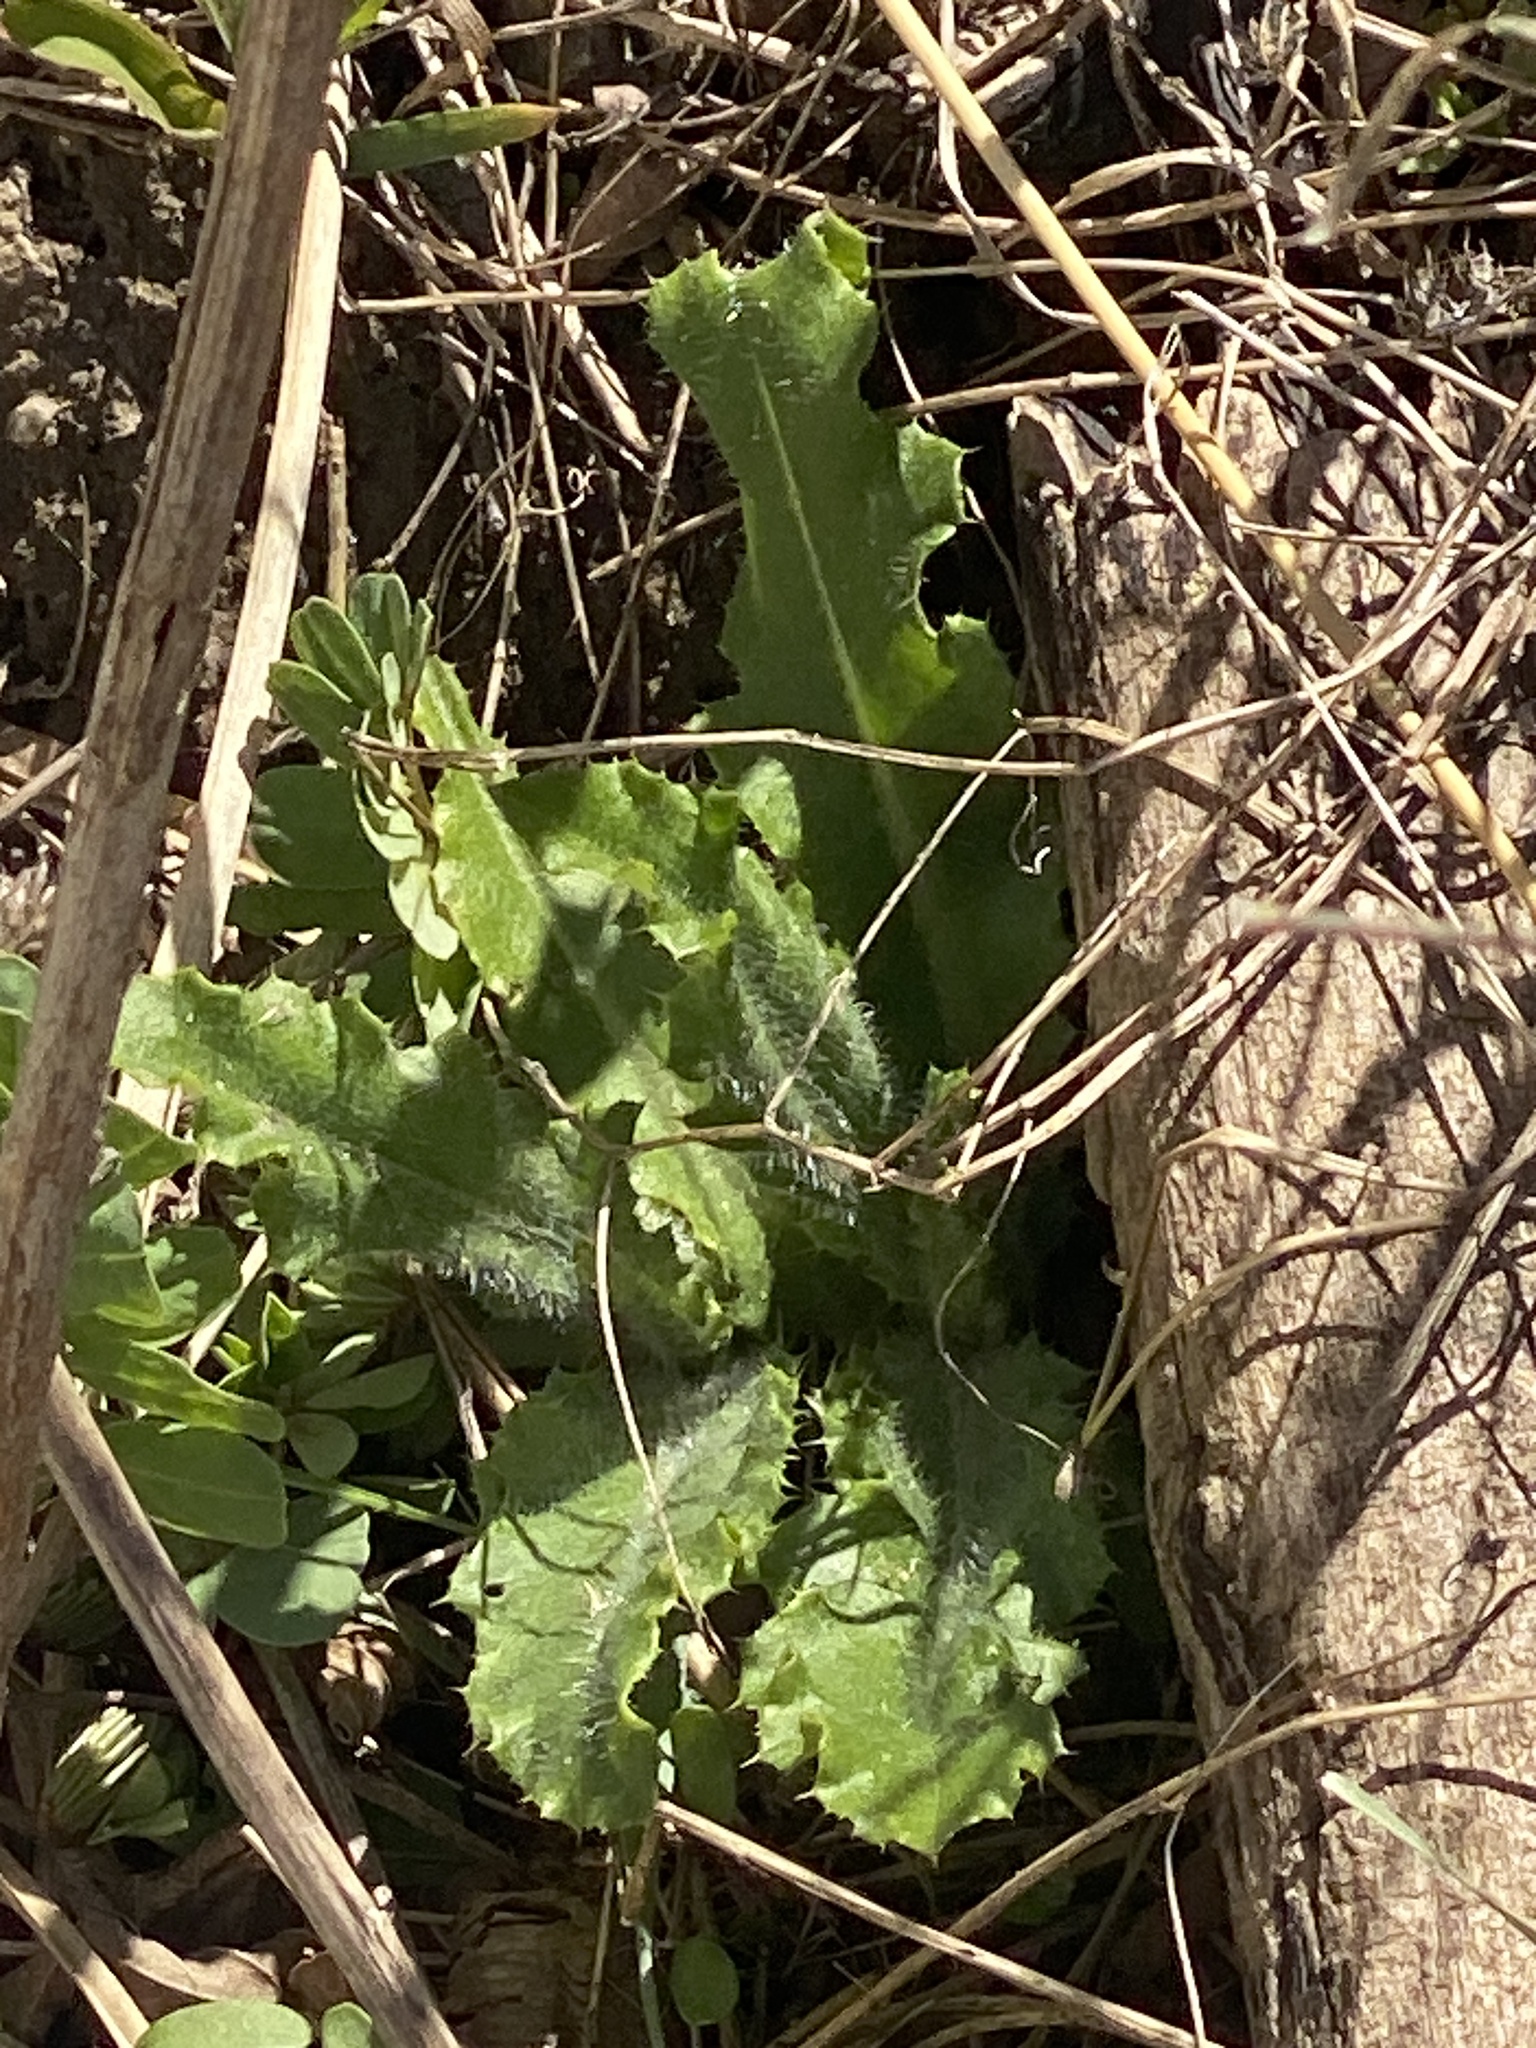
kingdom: Plantae
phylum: Tracheophyta
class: Magnoliopsida
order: Asterales
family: Asteraceae
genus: Cirsium
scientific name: Cirsium arvense
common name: Creeping thistle
